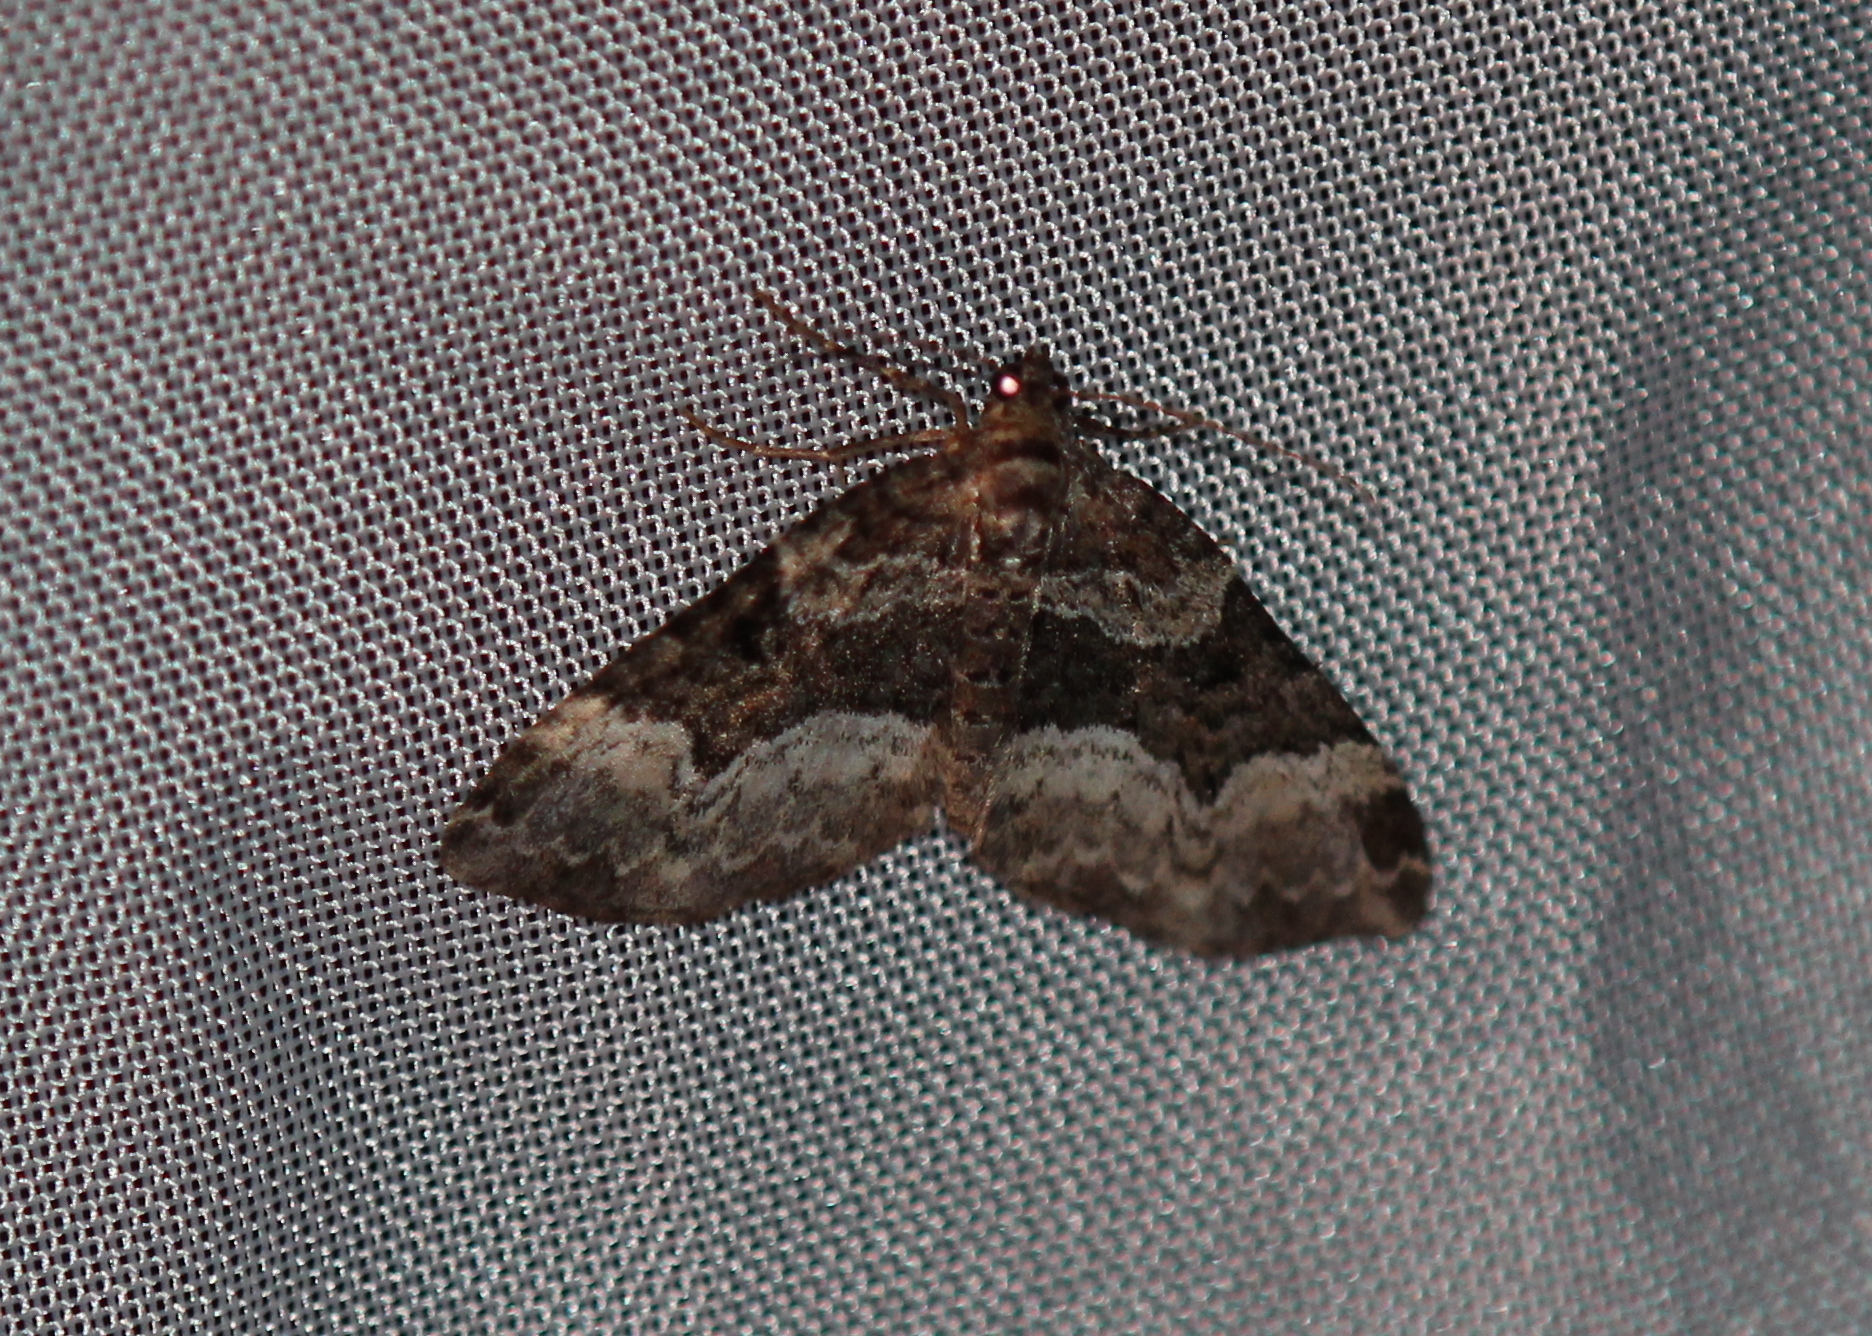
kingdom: Animalia
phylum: Arthropoda
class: Insecta
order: Lepidoptera
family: Geometridae
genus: Euphyia
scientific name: Euphyia intermediata
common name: Sharp-angled carpet
